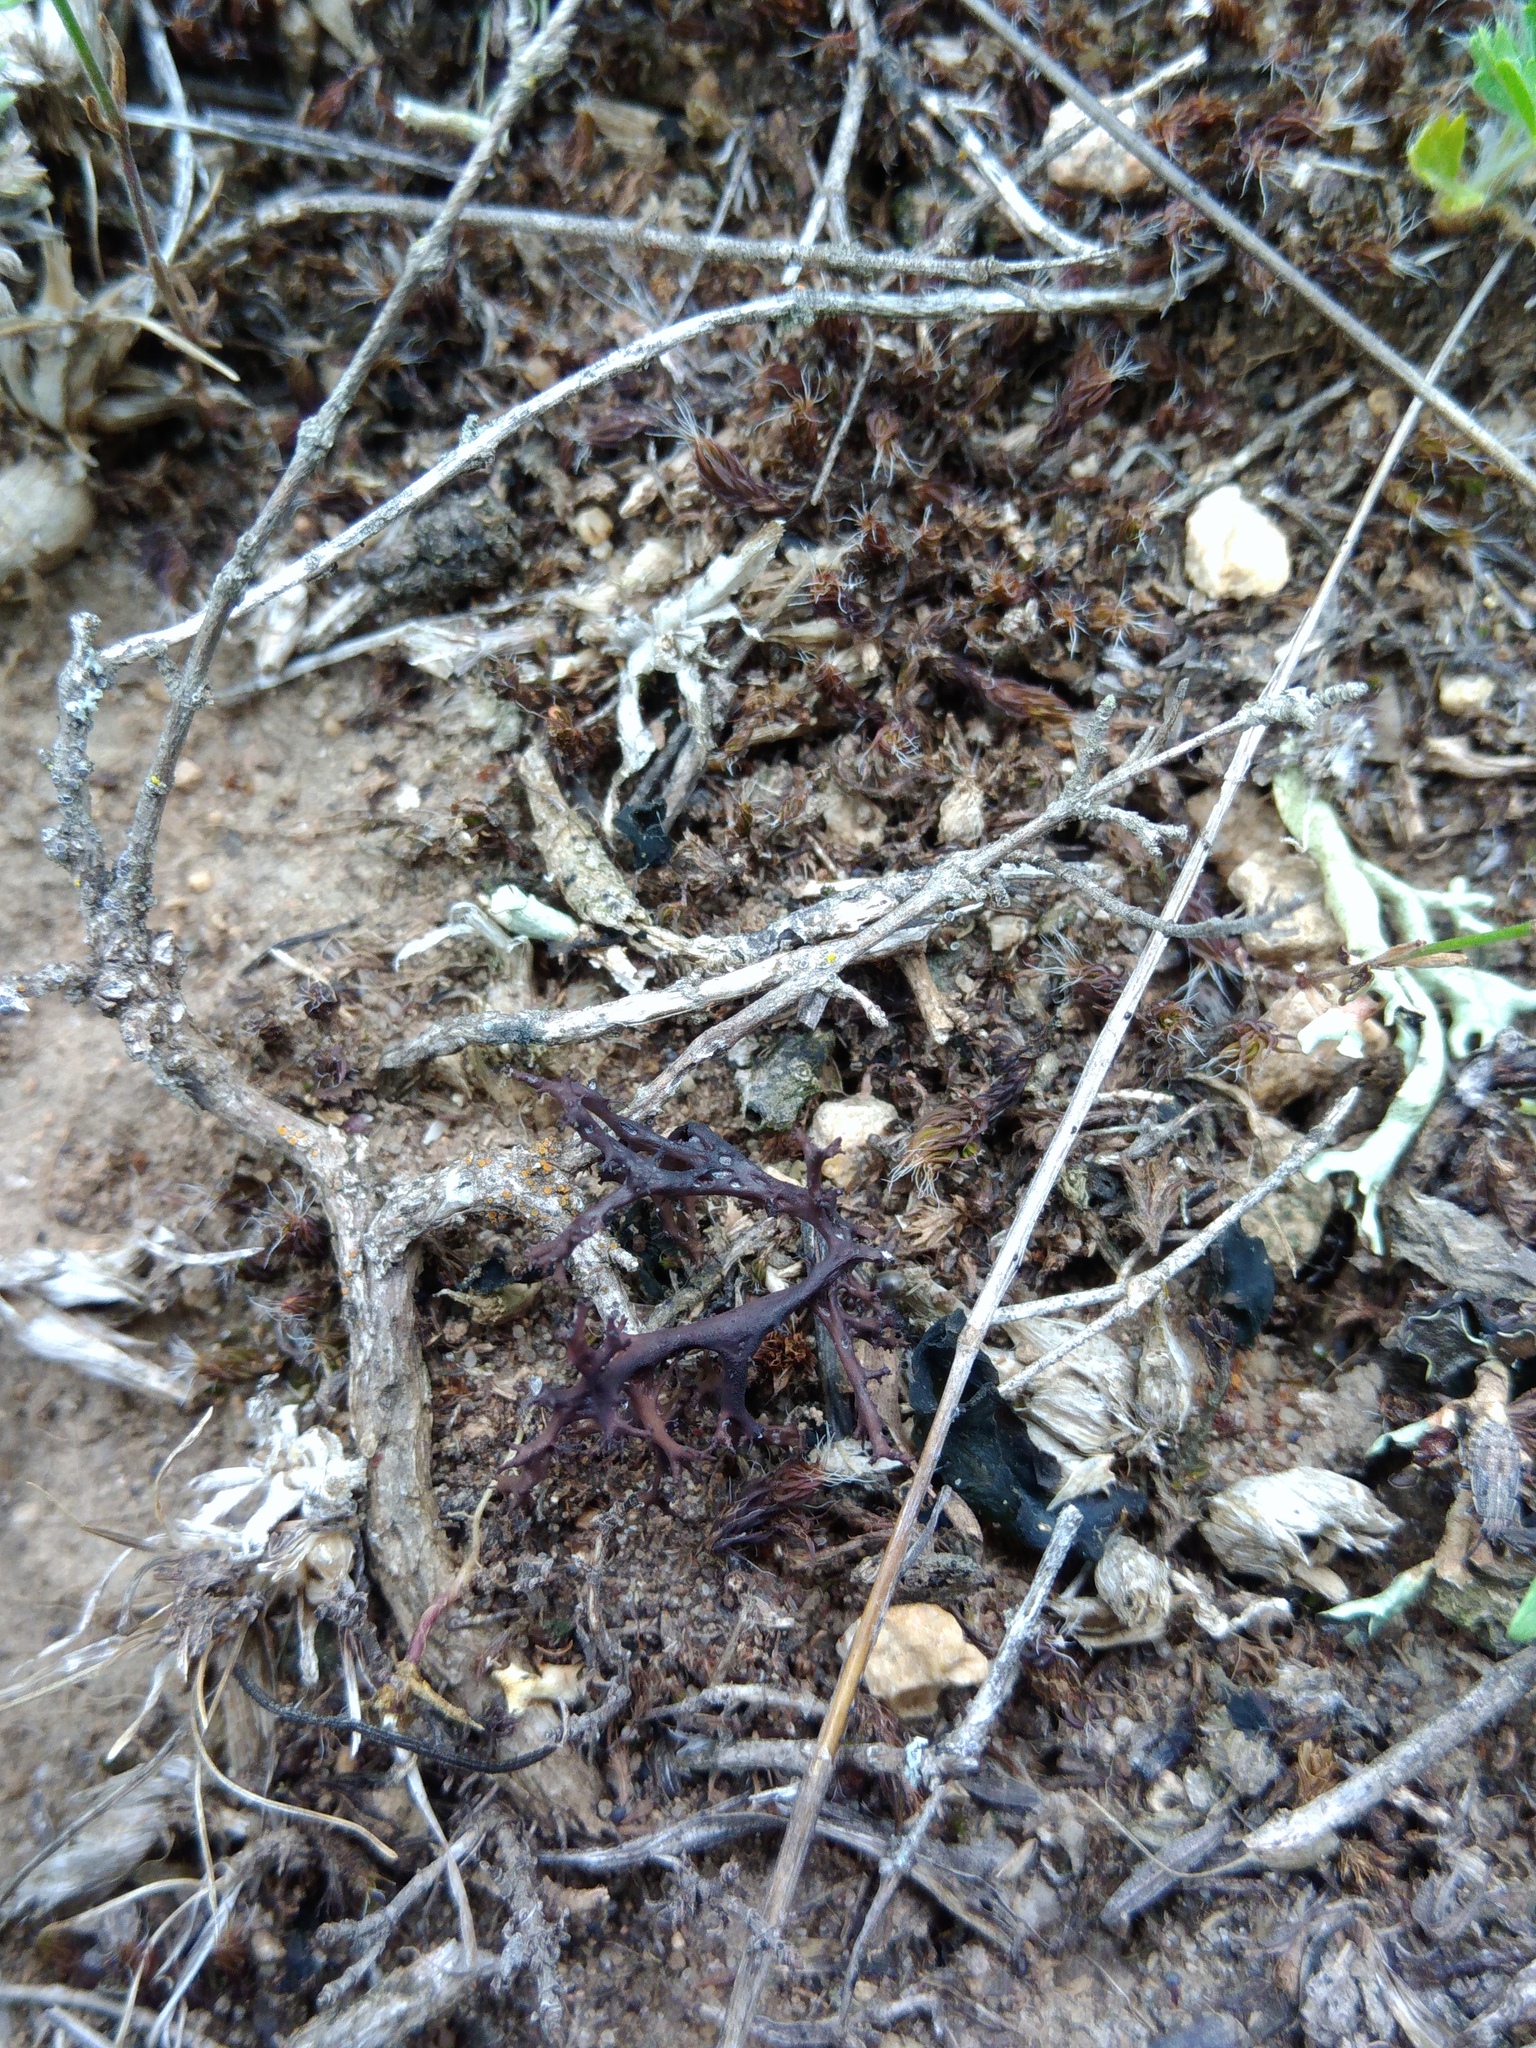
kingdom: Fungi
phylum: Ascomycota
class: Lecanoromycetes
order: Lecanorales
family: Parmeliaceae
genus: Cetraria
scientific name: Cetraria aculeata
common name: Spiny heath lichen
